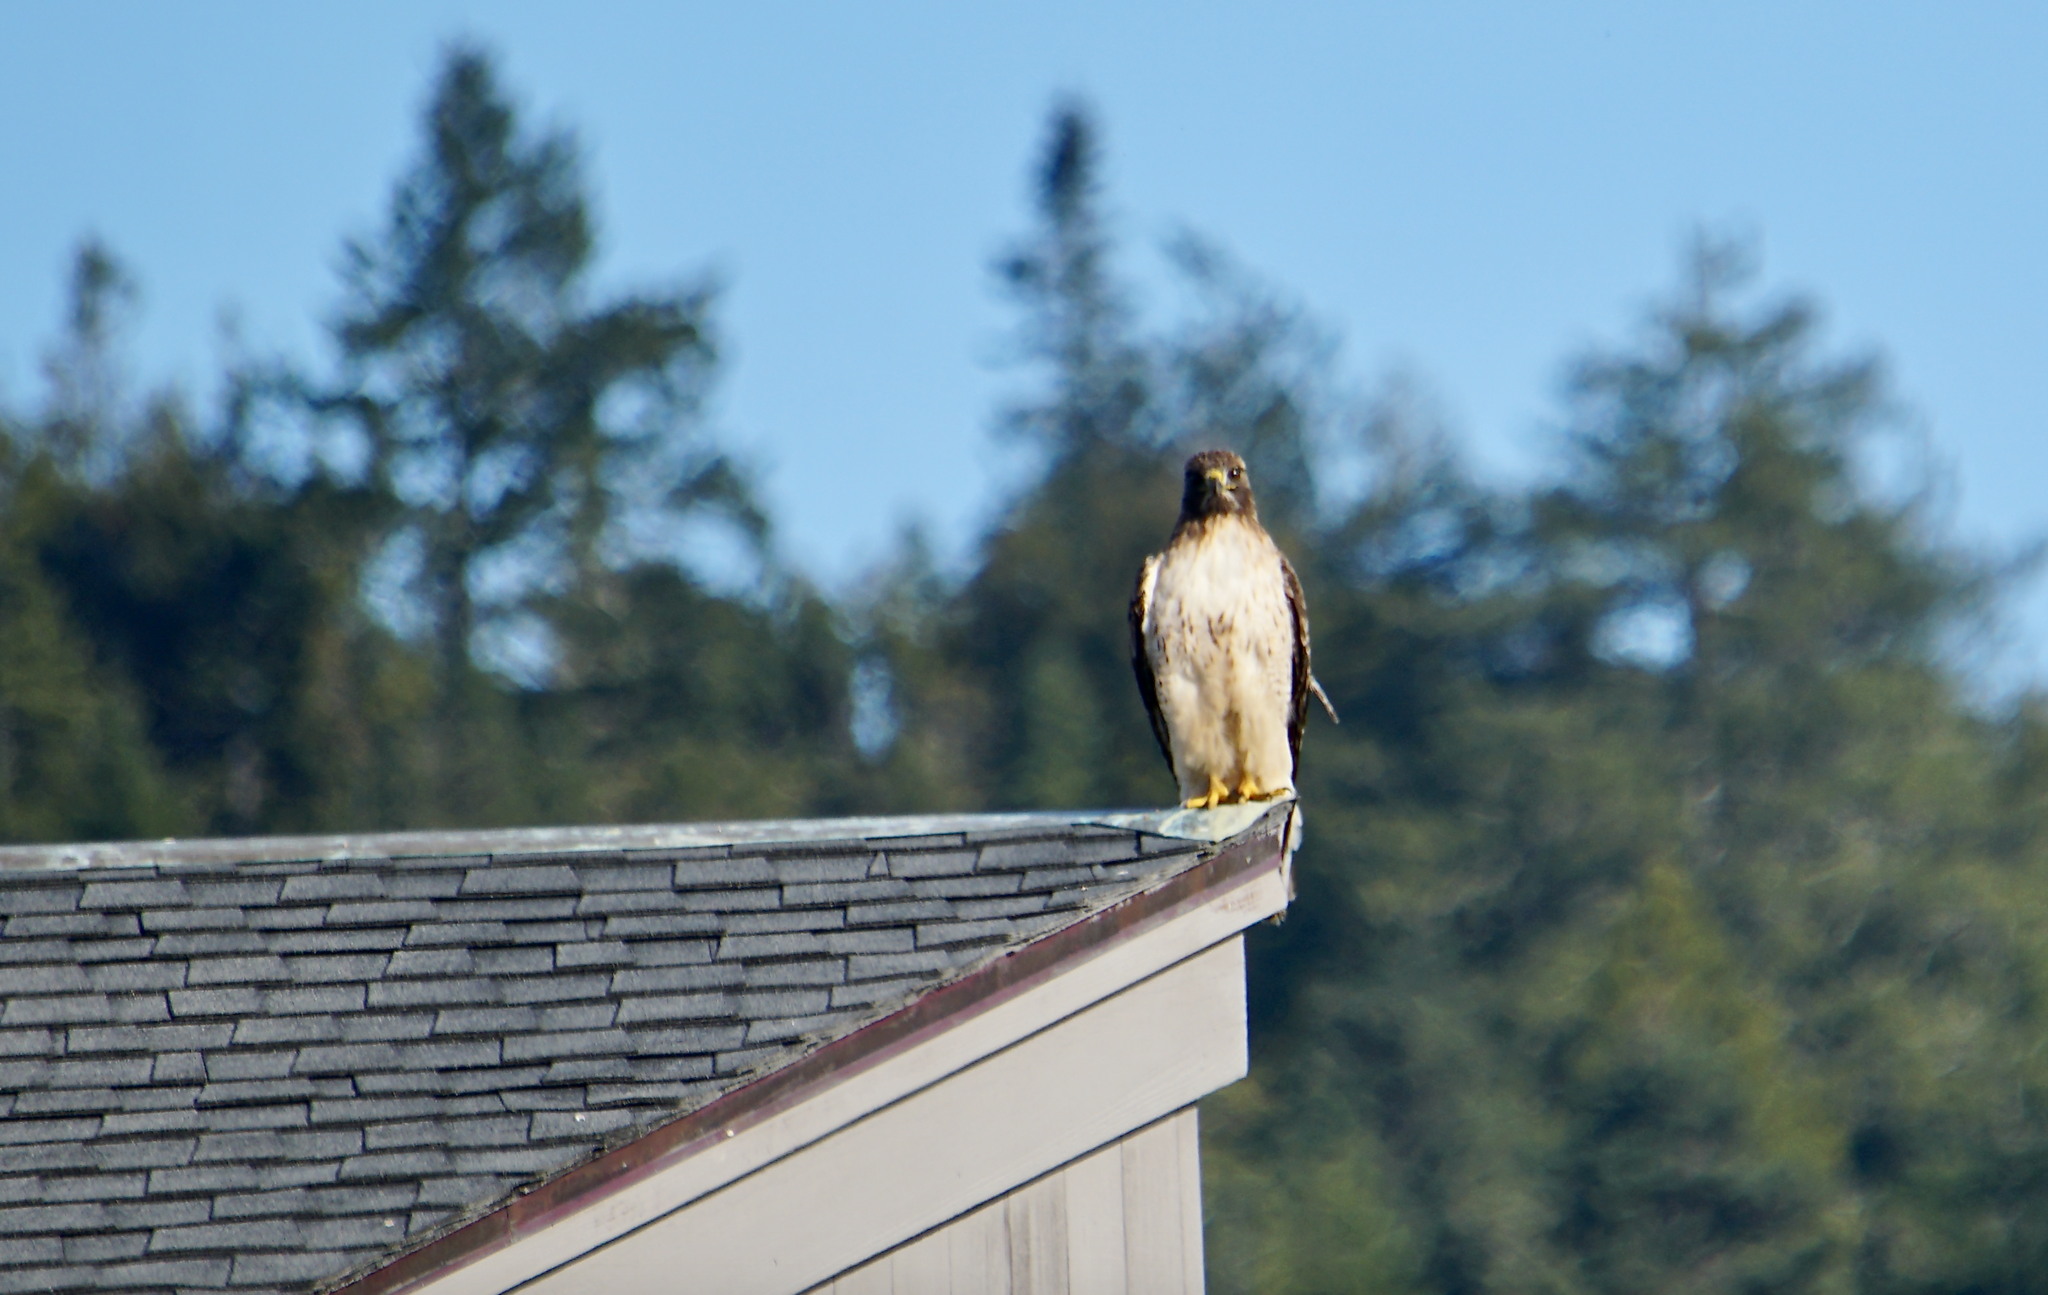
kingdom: Animalia
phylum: Chordata
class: Aves
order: Accipitriformes
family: Accipitridae
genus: Buteo
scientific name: Buteo jamaicensis
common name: Red-tailed hawk
